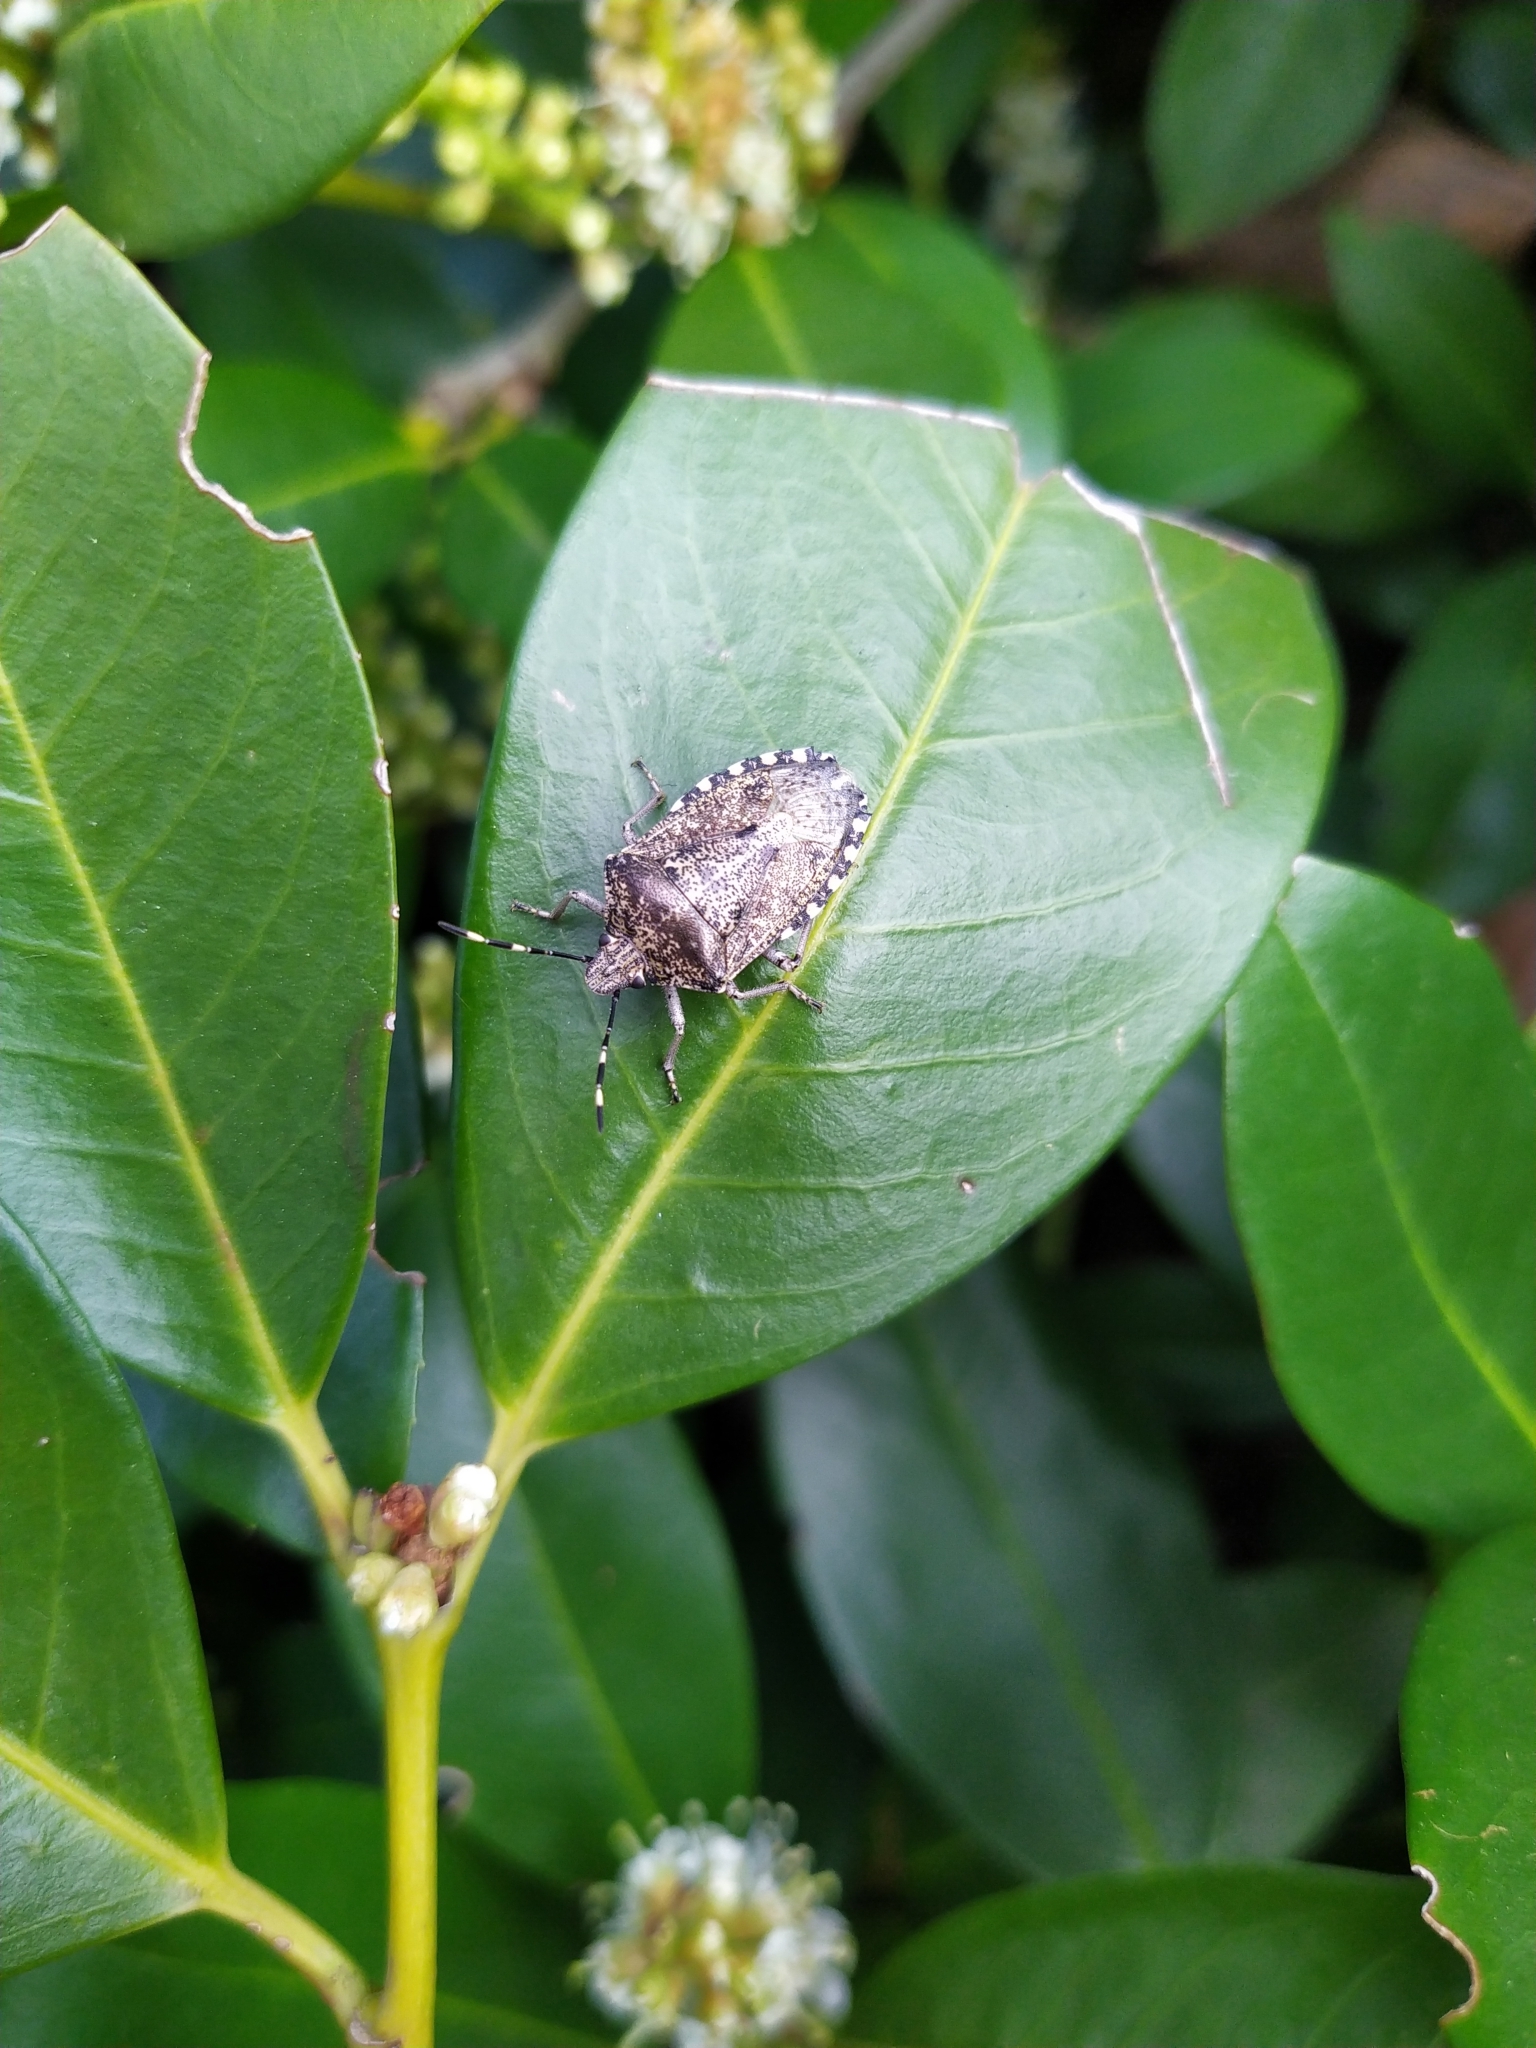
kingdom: Animalia
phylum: Arthropoda
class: Insecta
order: Hemiptera
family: Pentatomidae
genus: Rhaphigaster
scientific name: Rhaphigaster nebulosa
